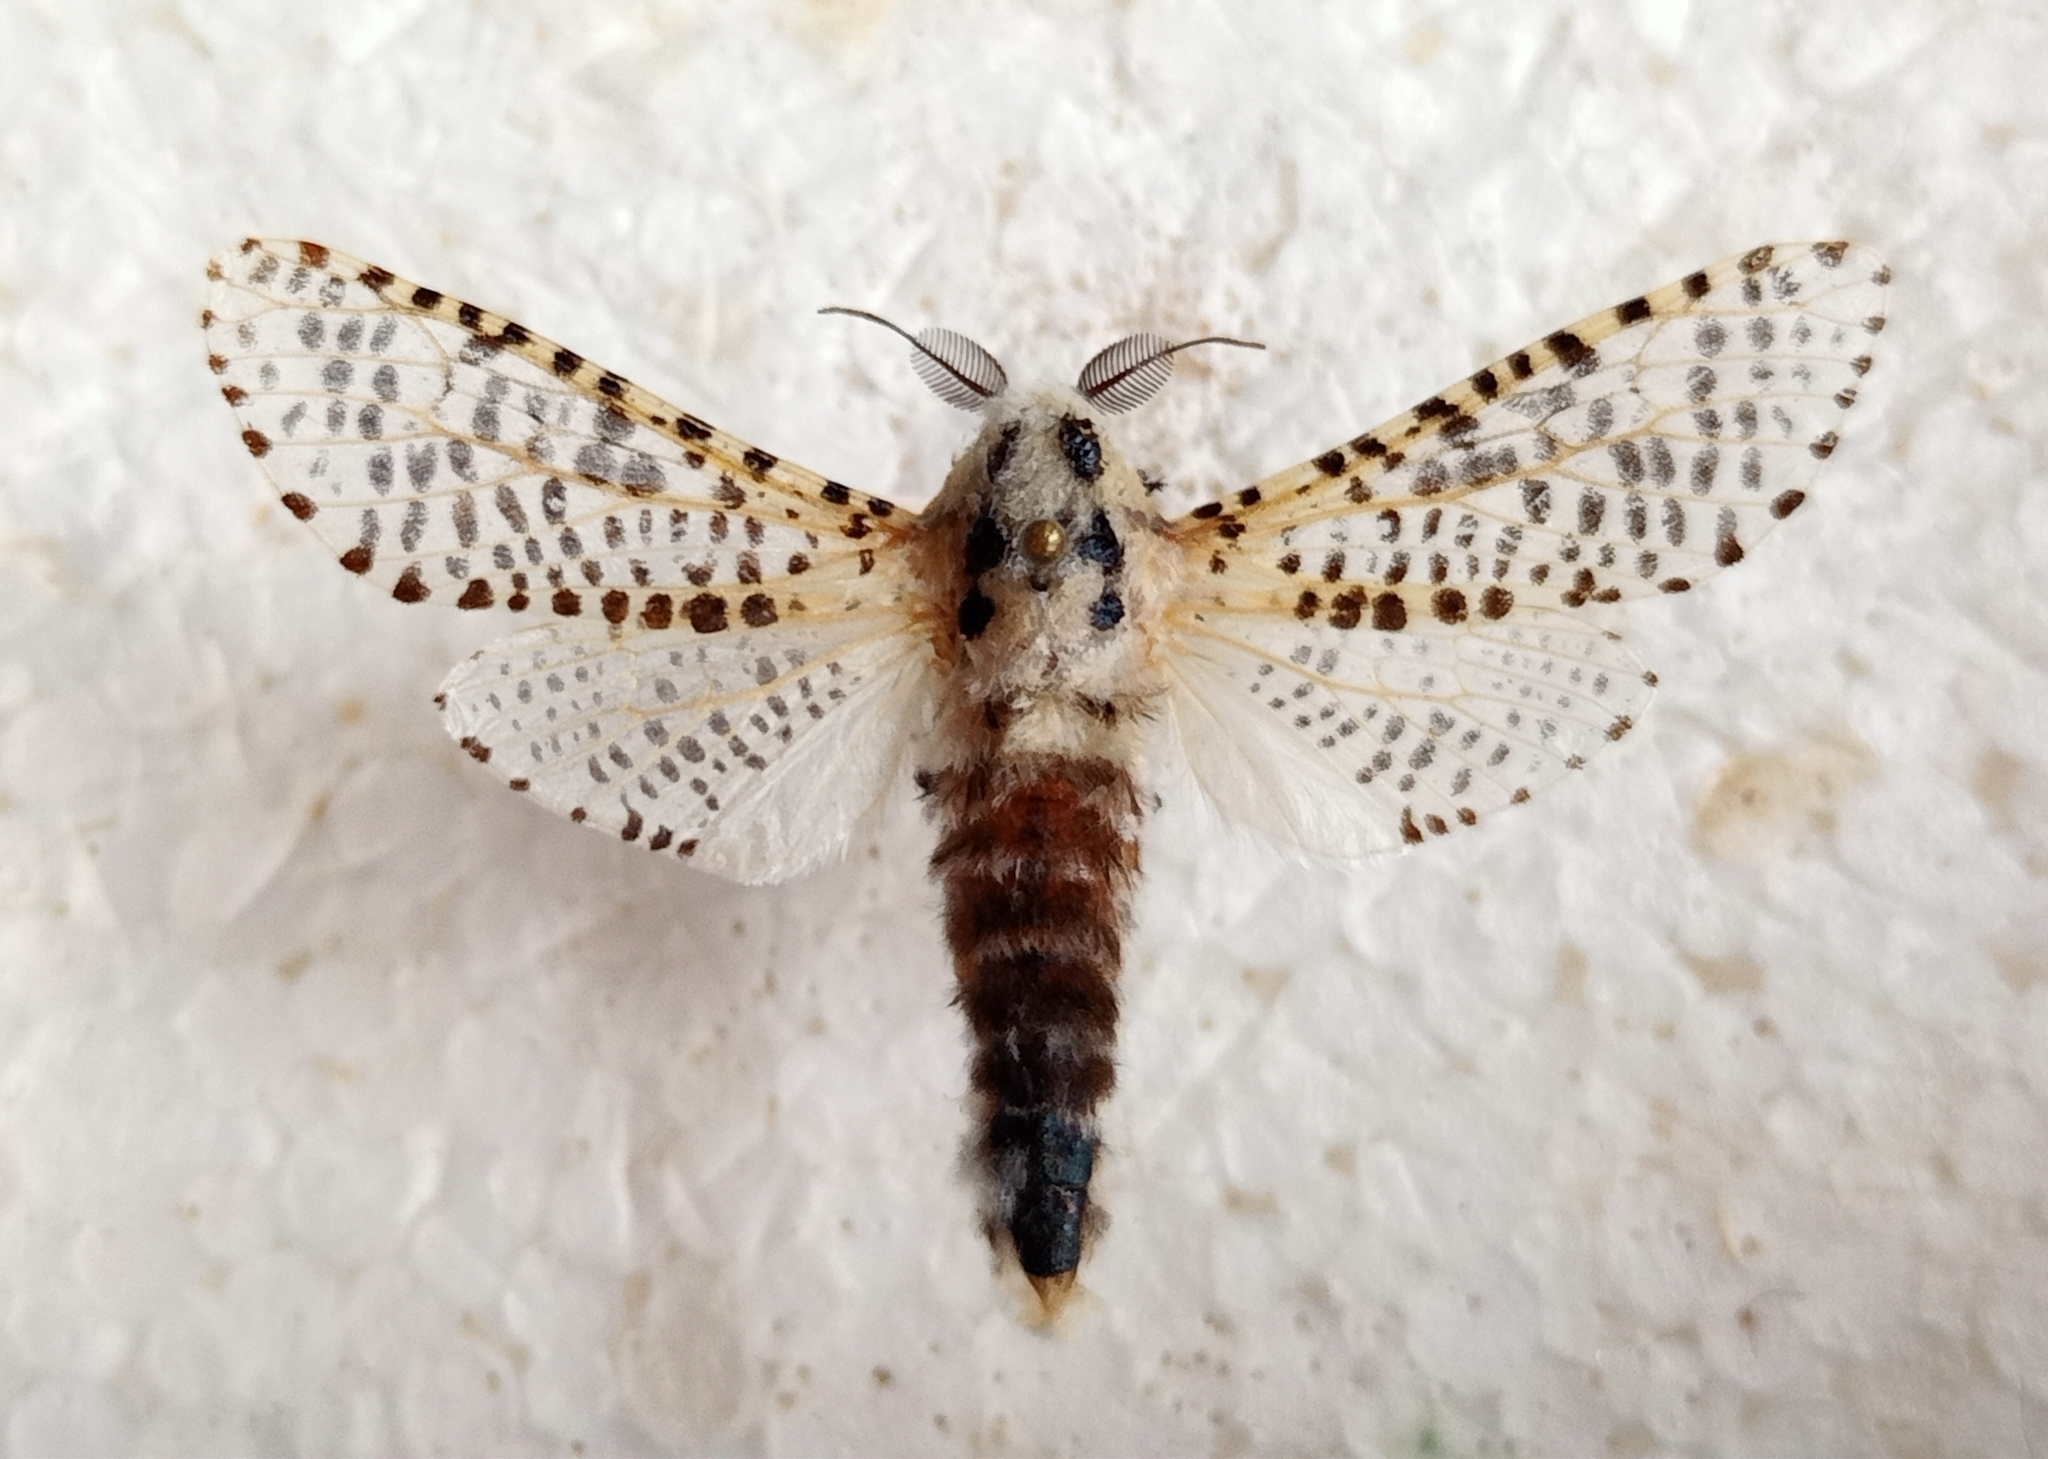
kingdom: Animalia
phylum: Arthropoda
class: Insecta
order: Lepidoptera
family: Cossidae
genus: Zeuzera
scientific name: Zeuzera pyrina
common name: Leopard moth
